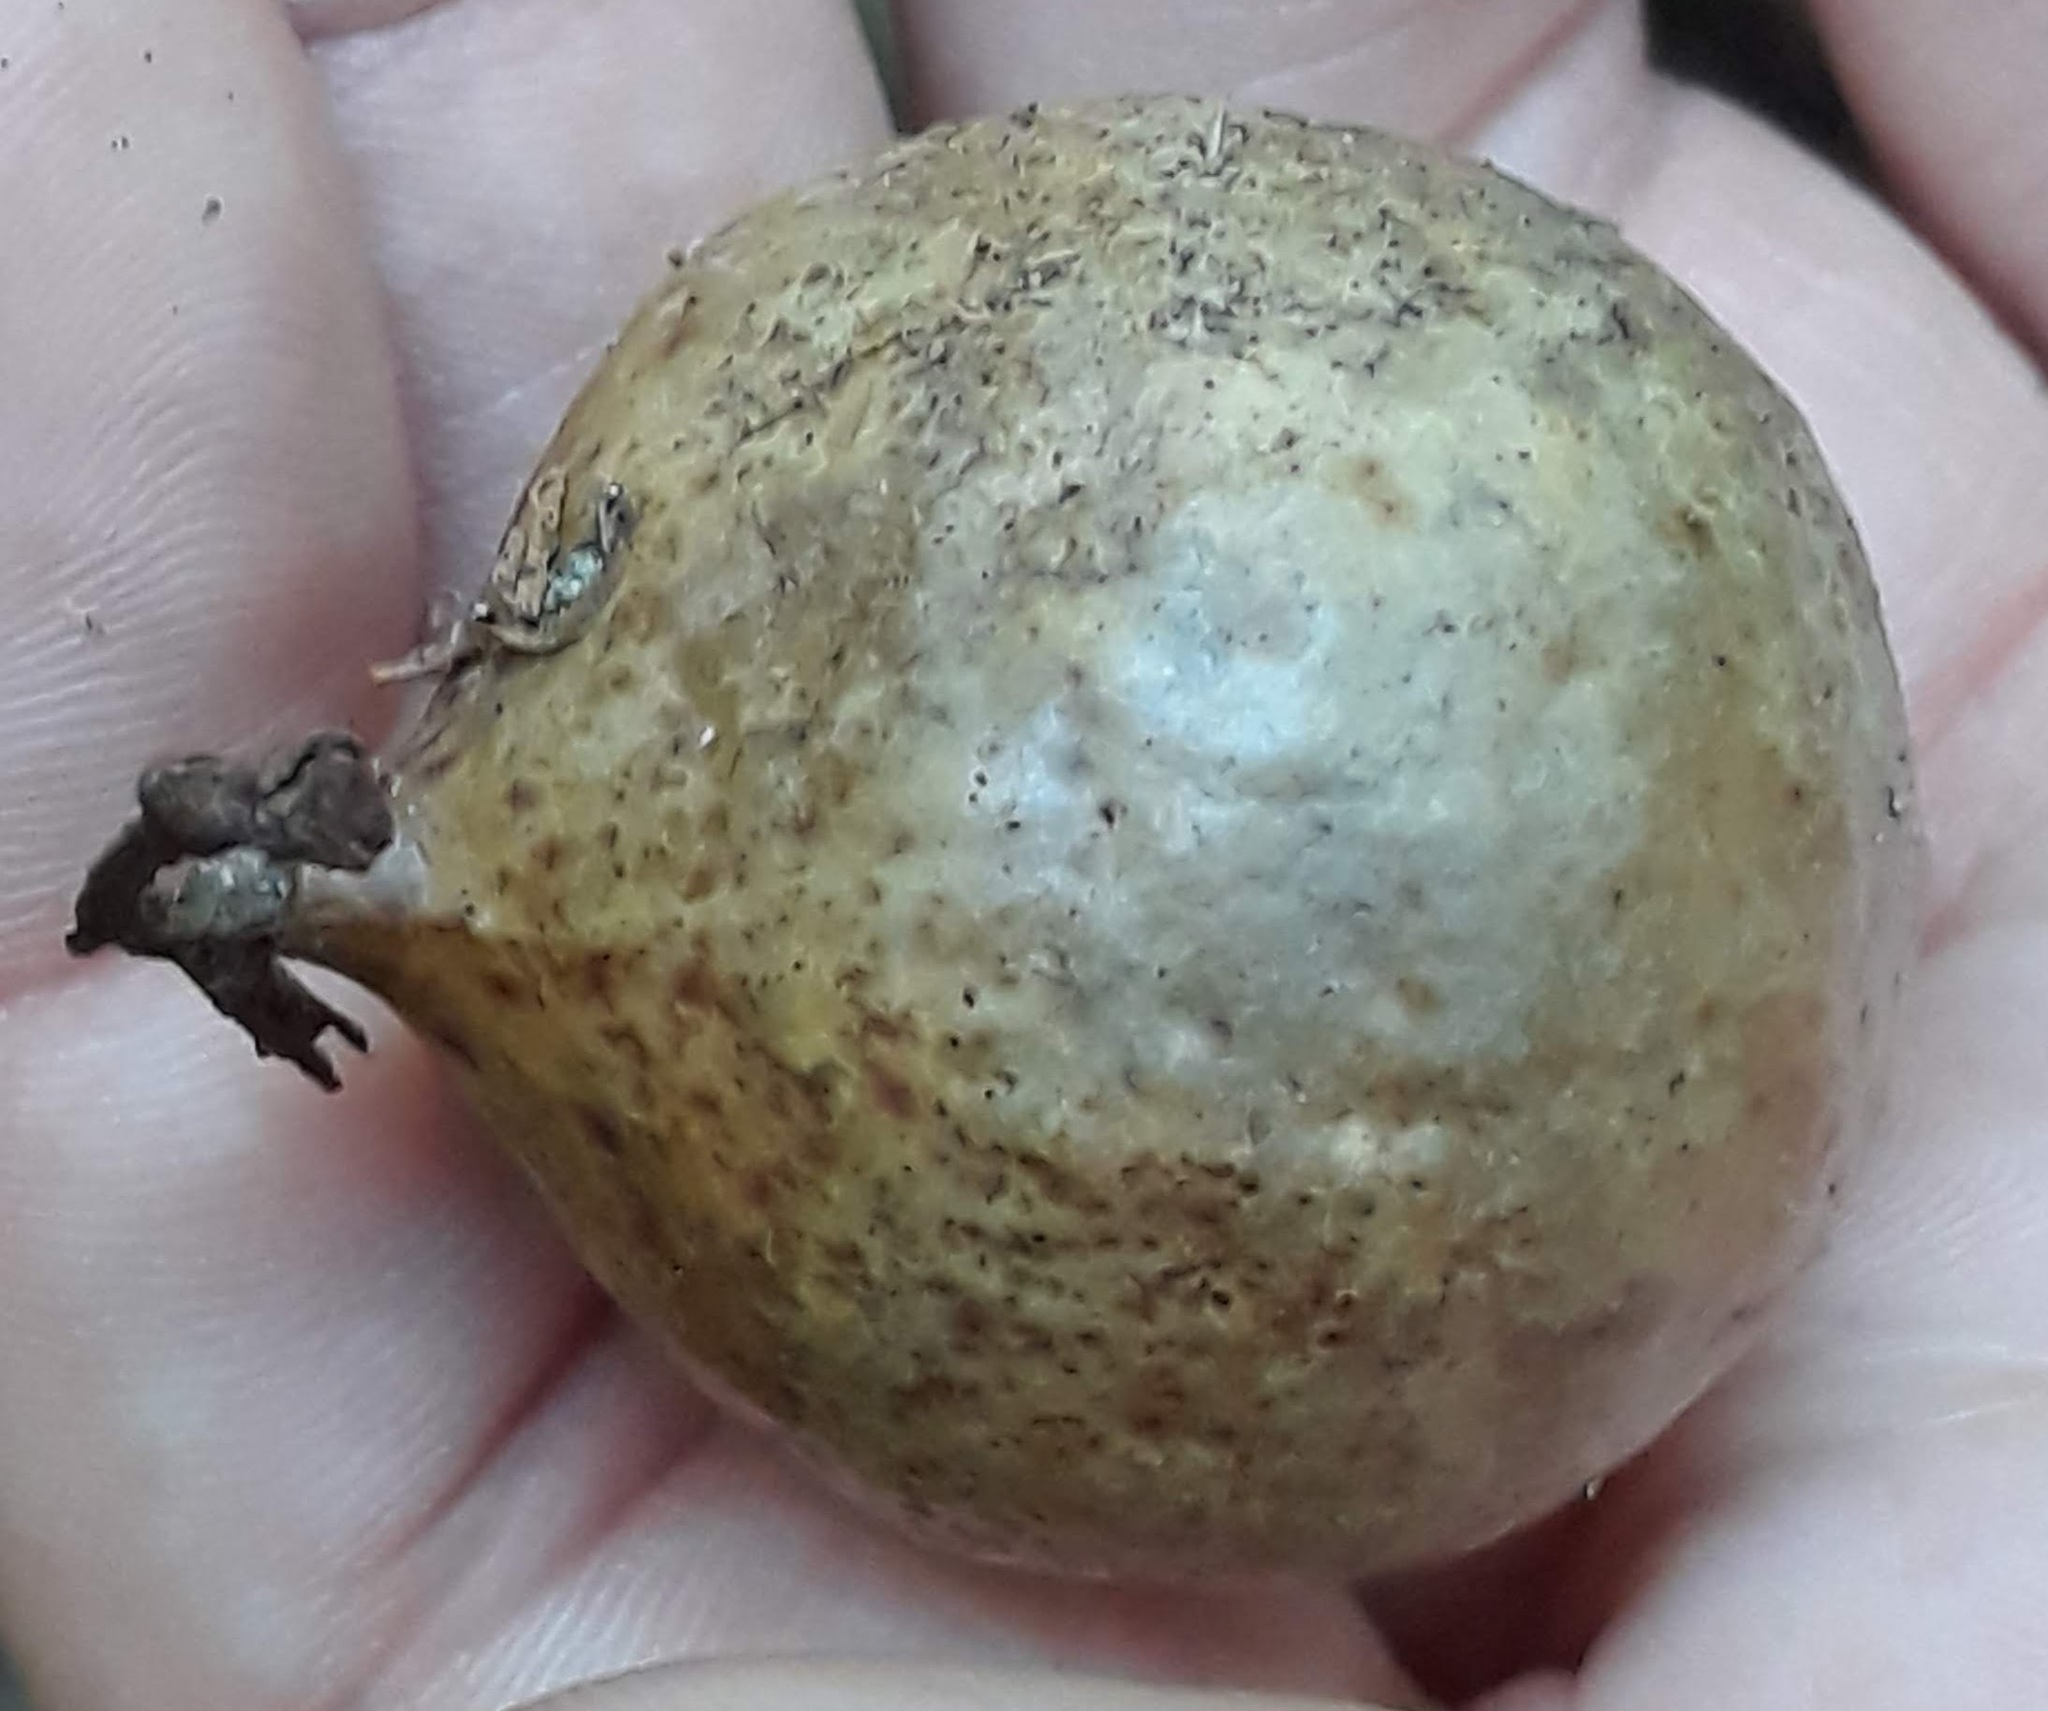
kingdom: Animalia
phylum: Arthropoda
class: Insecta
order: Hymenoptera
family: Cynipidae
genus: Amphibolips
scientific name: Amphibolips
